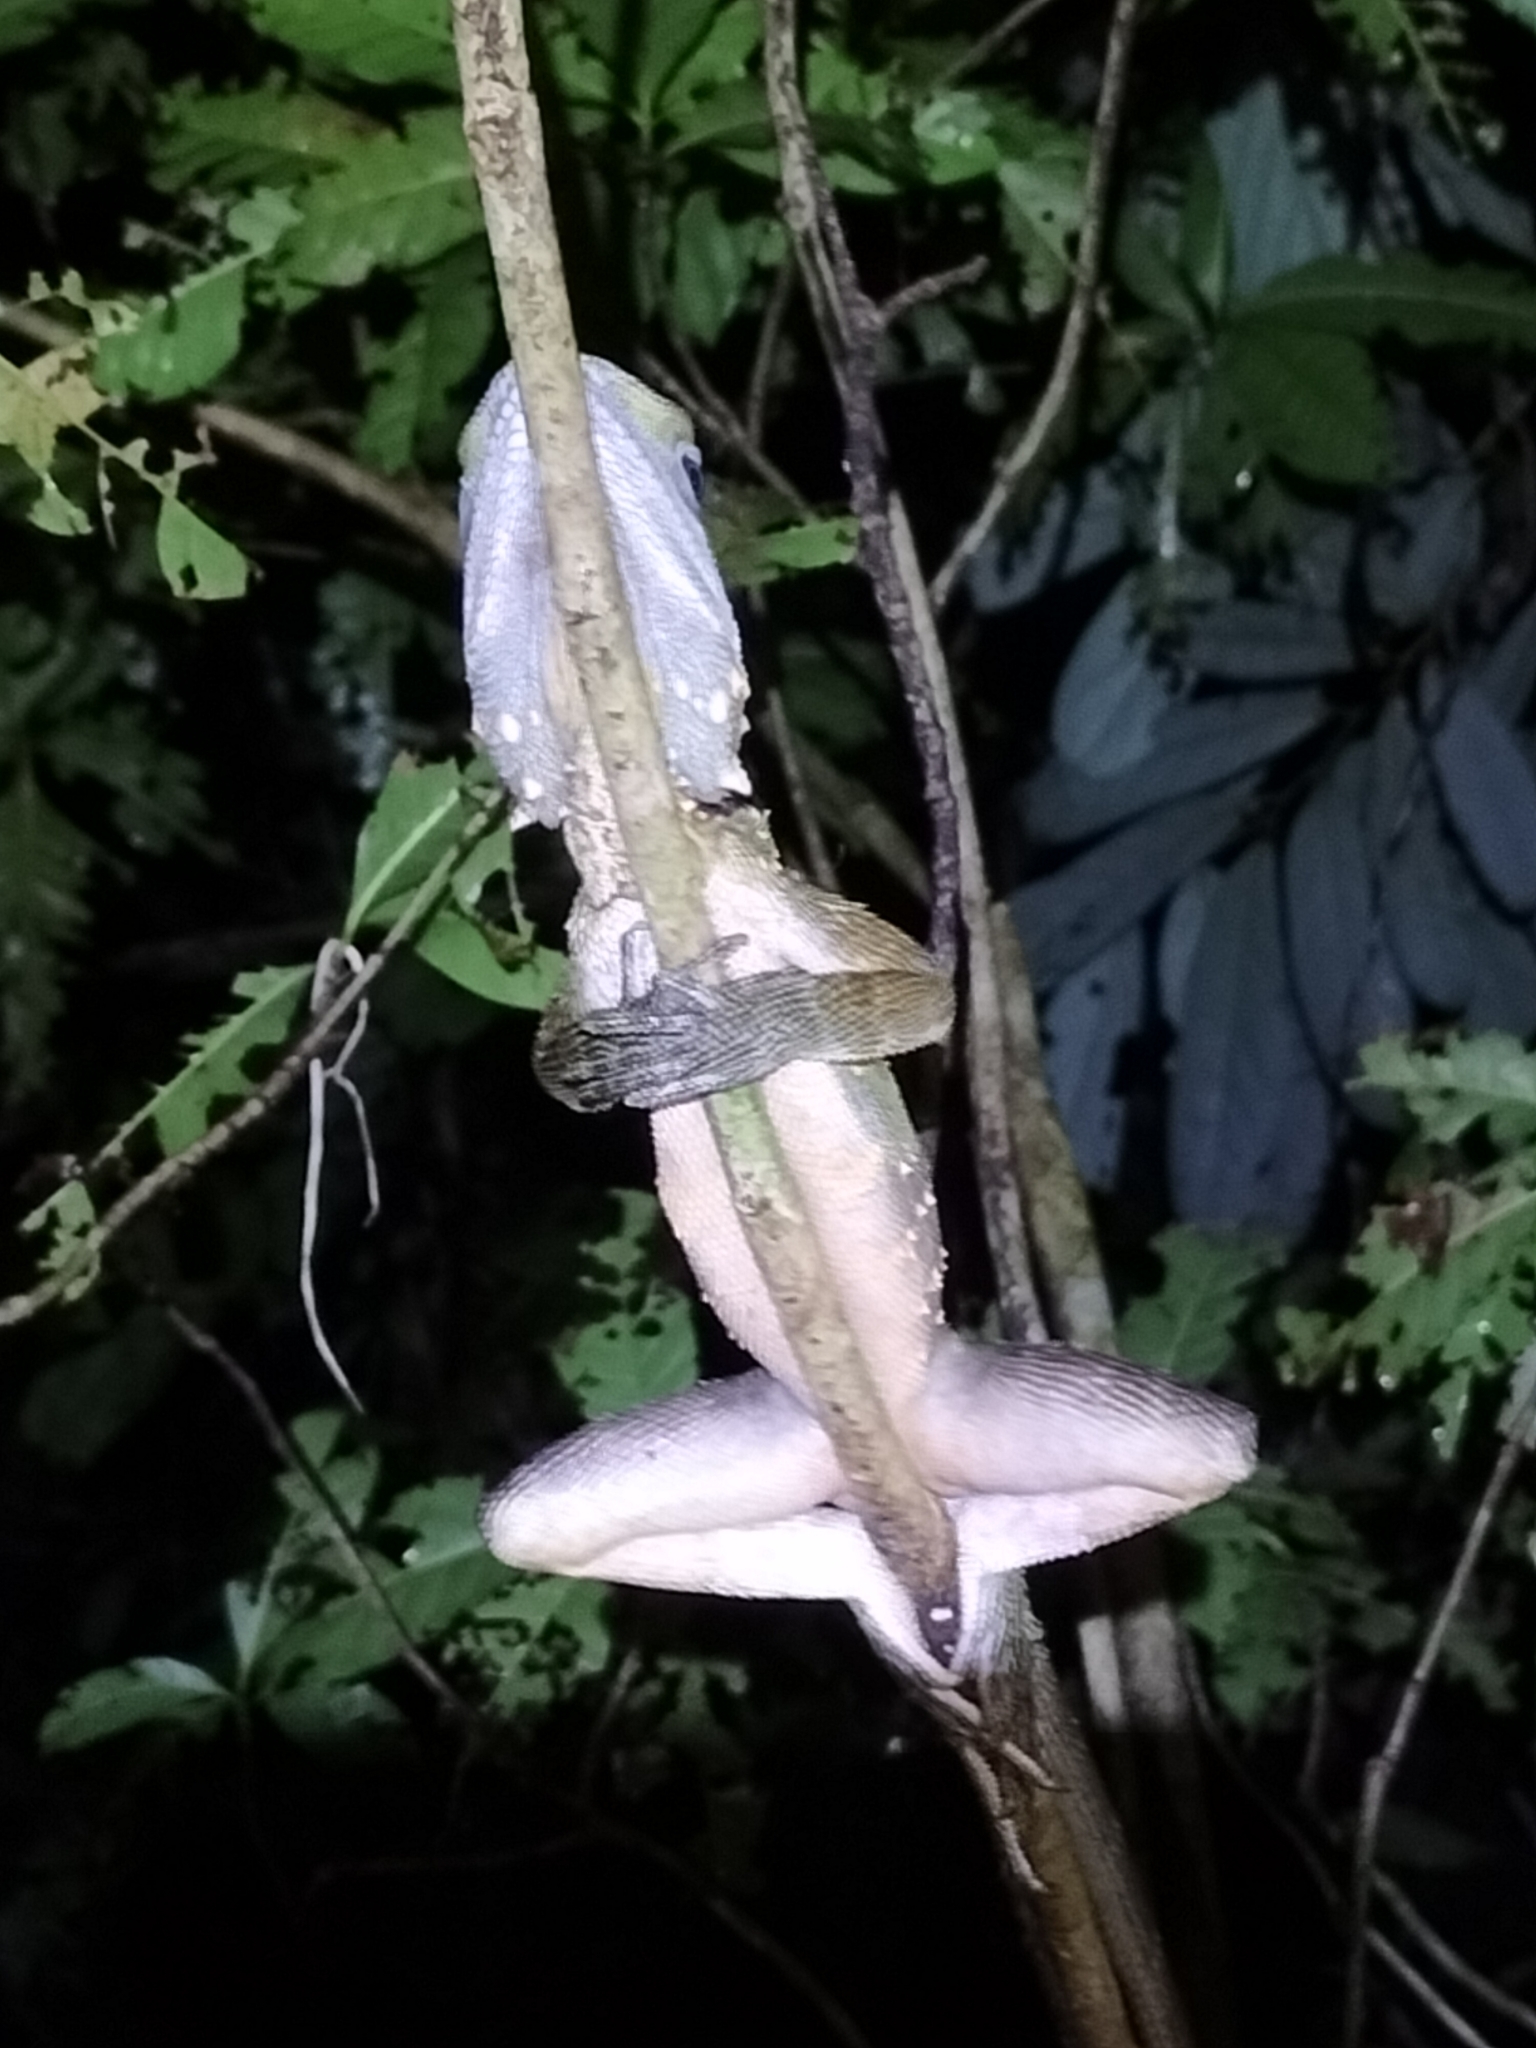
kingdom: Animalia
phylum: Chordata
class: Squamata
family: Agamidae
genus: Lophosaurus
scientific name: Lophosaurus boydii
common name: Boyd's forest dragon
